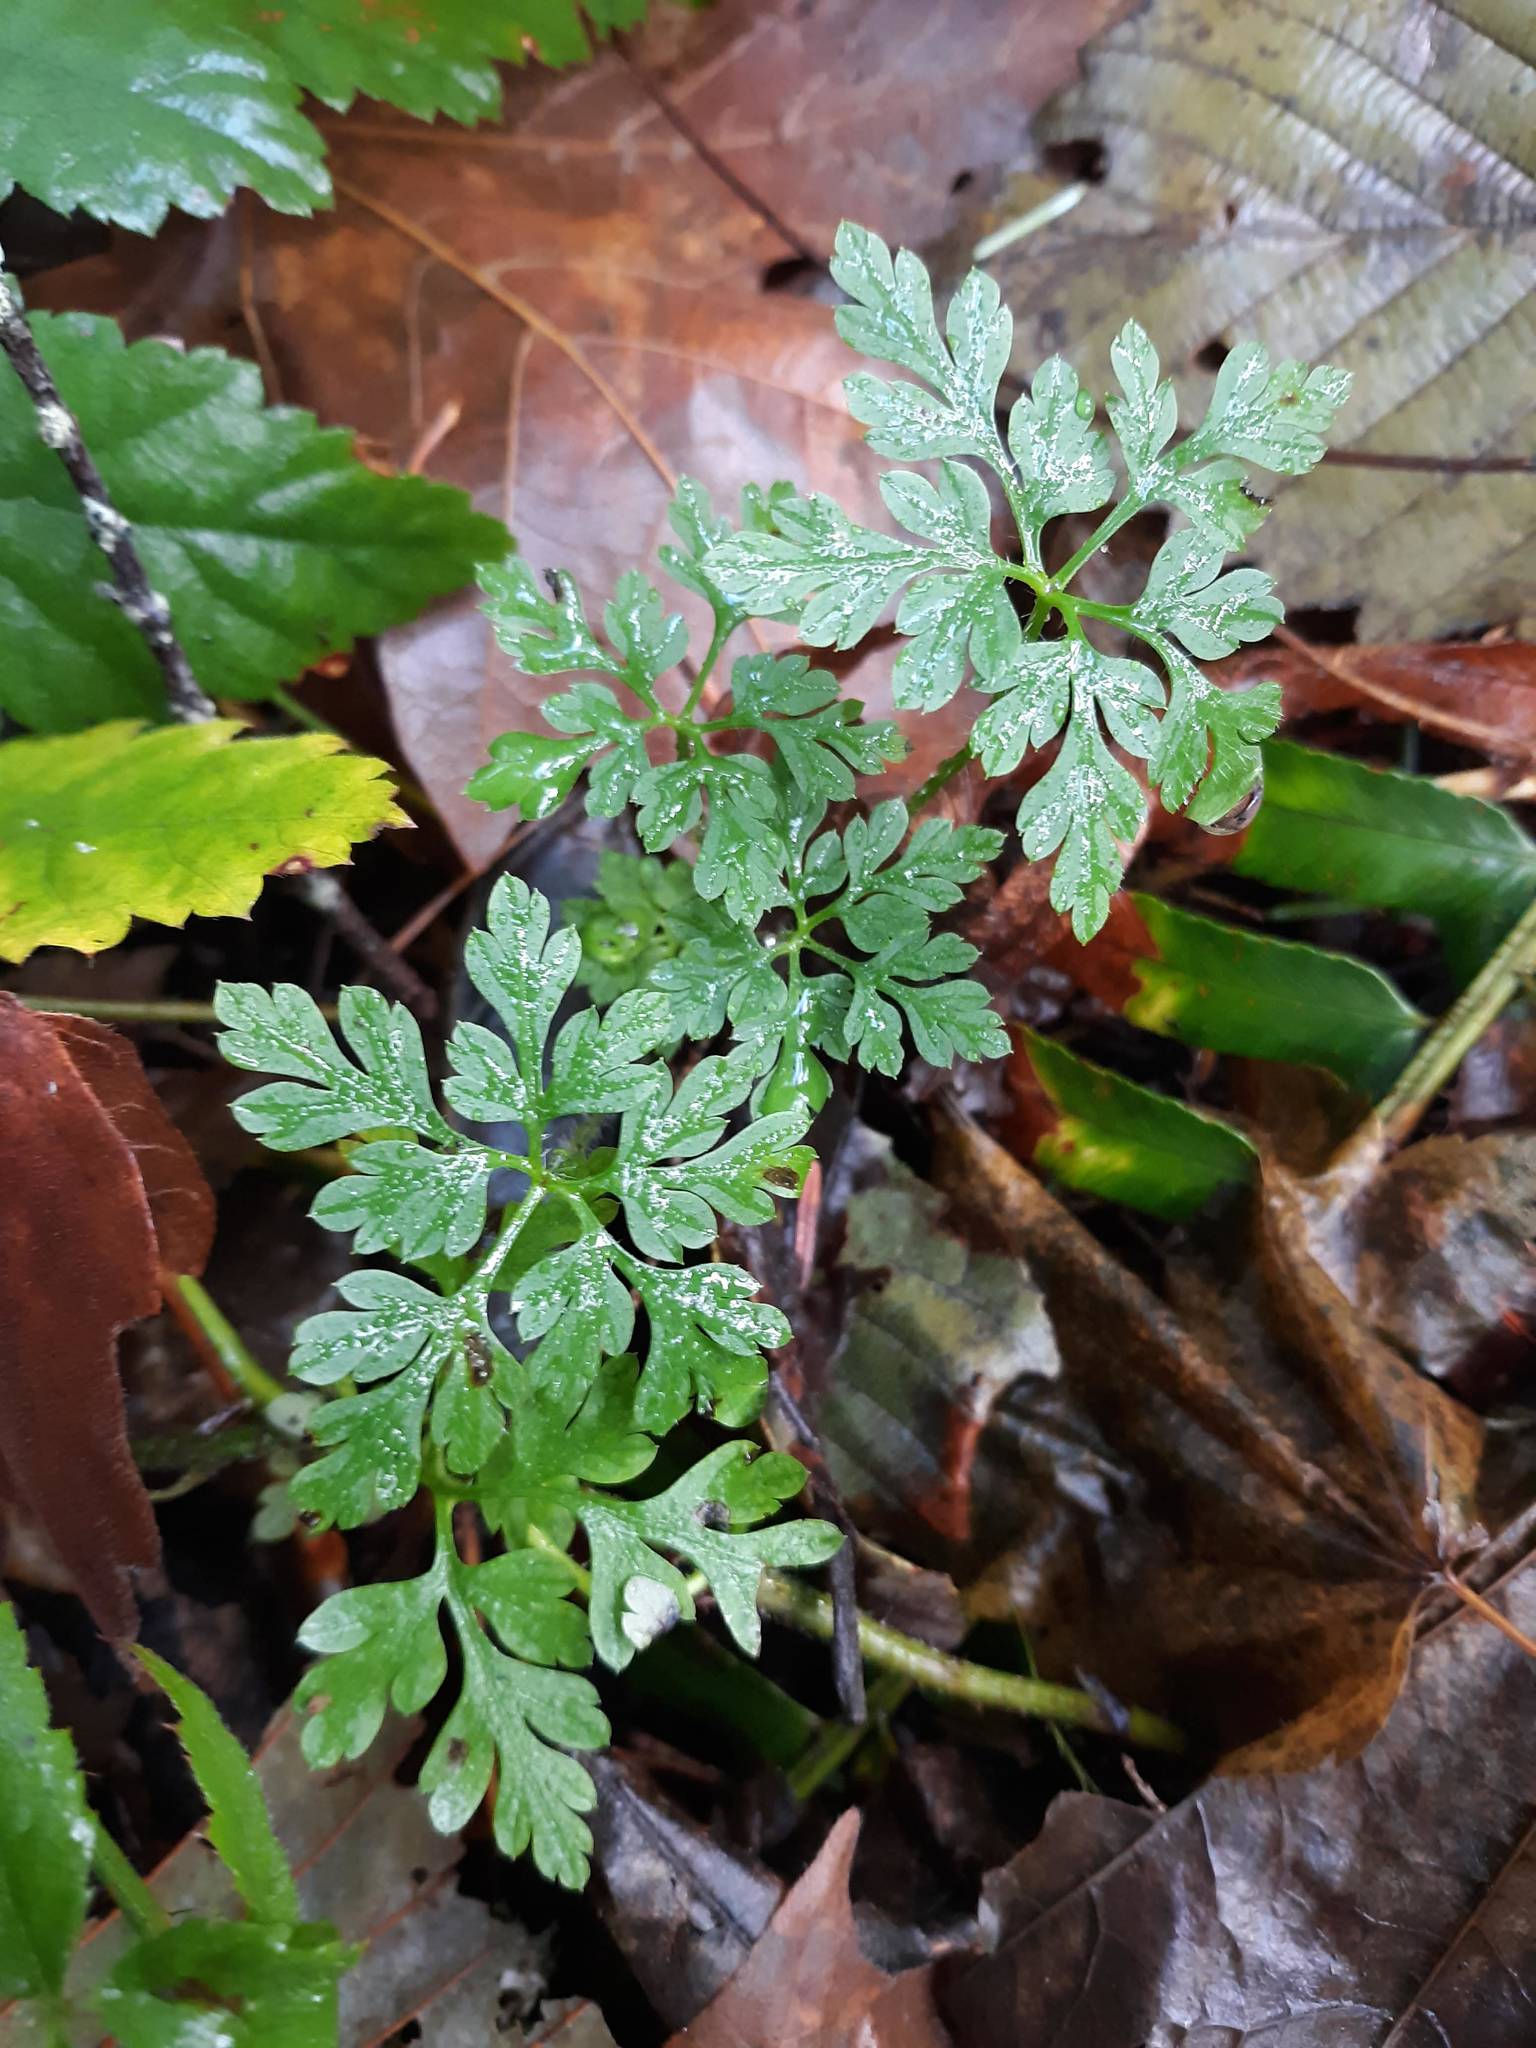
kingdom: Plantae
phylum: Tracheophyta
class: Magnoliopsida
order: Geraniales
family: Geraniaceae
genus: Geranium
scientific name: Geranium robertianum
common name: Herb-robert
